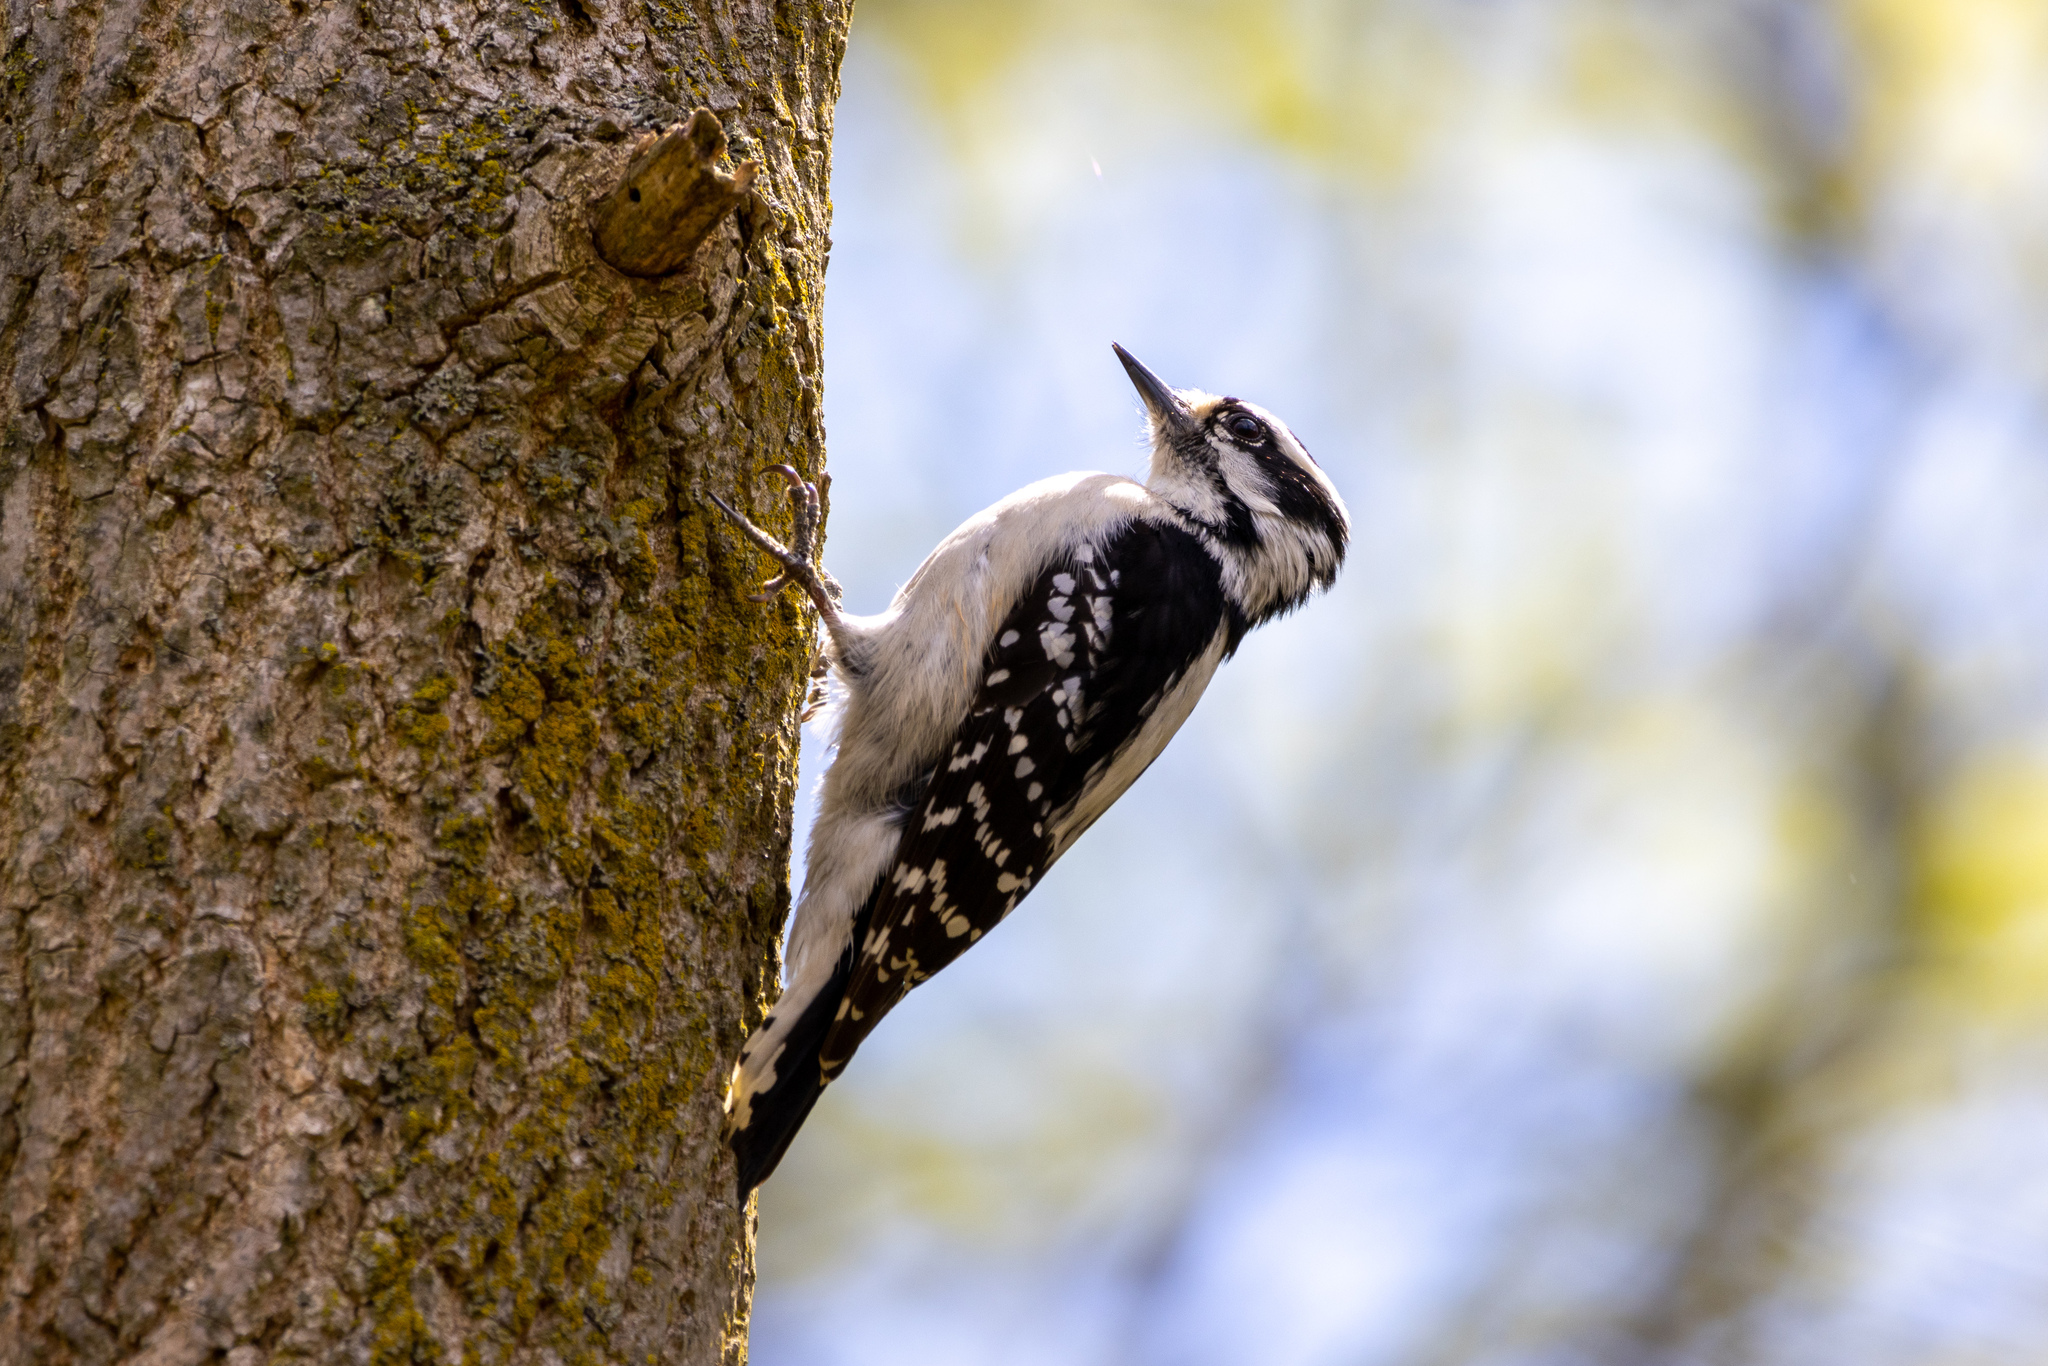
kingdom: Animalia
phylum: Chordata
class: Aves
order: Piciformes
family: Picidae
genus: Dryobates
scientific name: Dryobates pubescens
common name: Downy woodpecker
